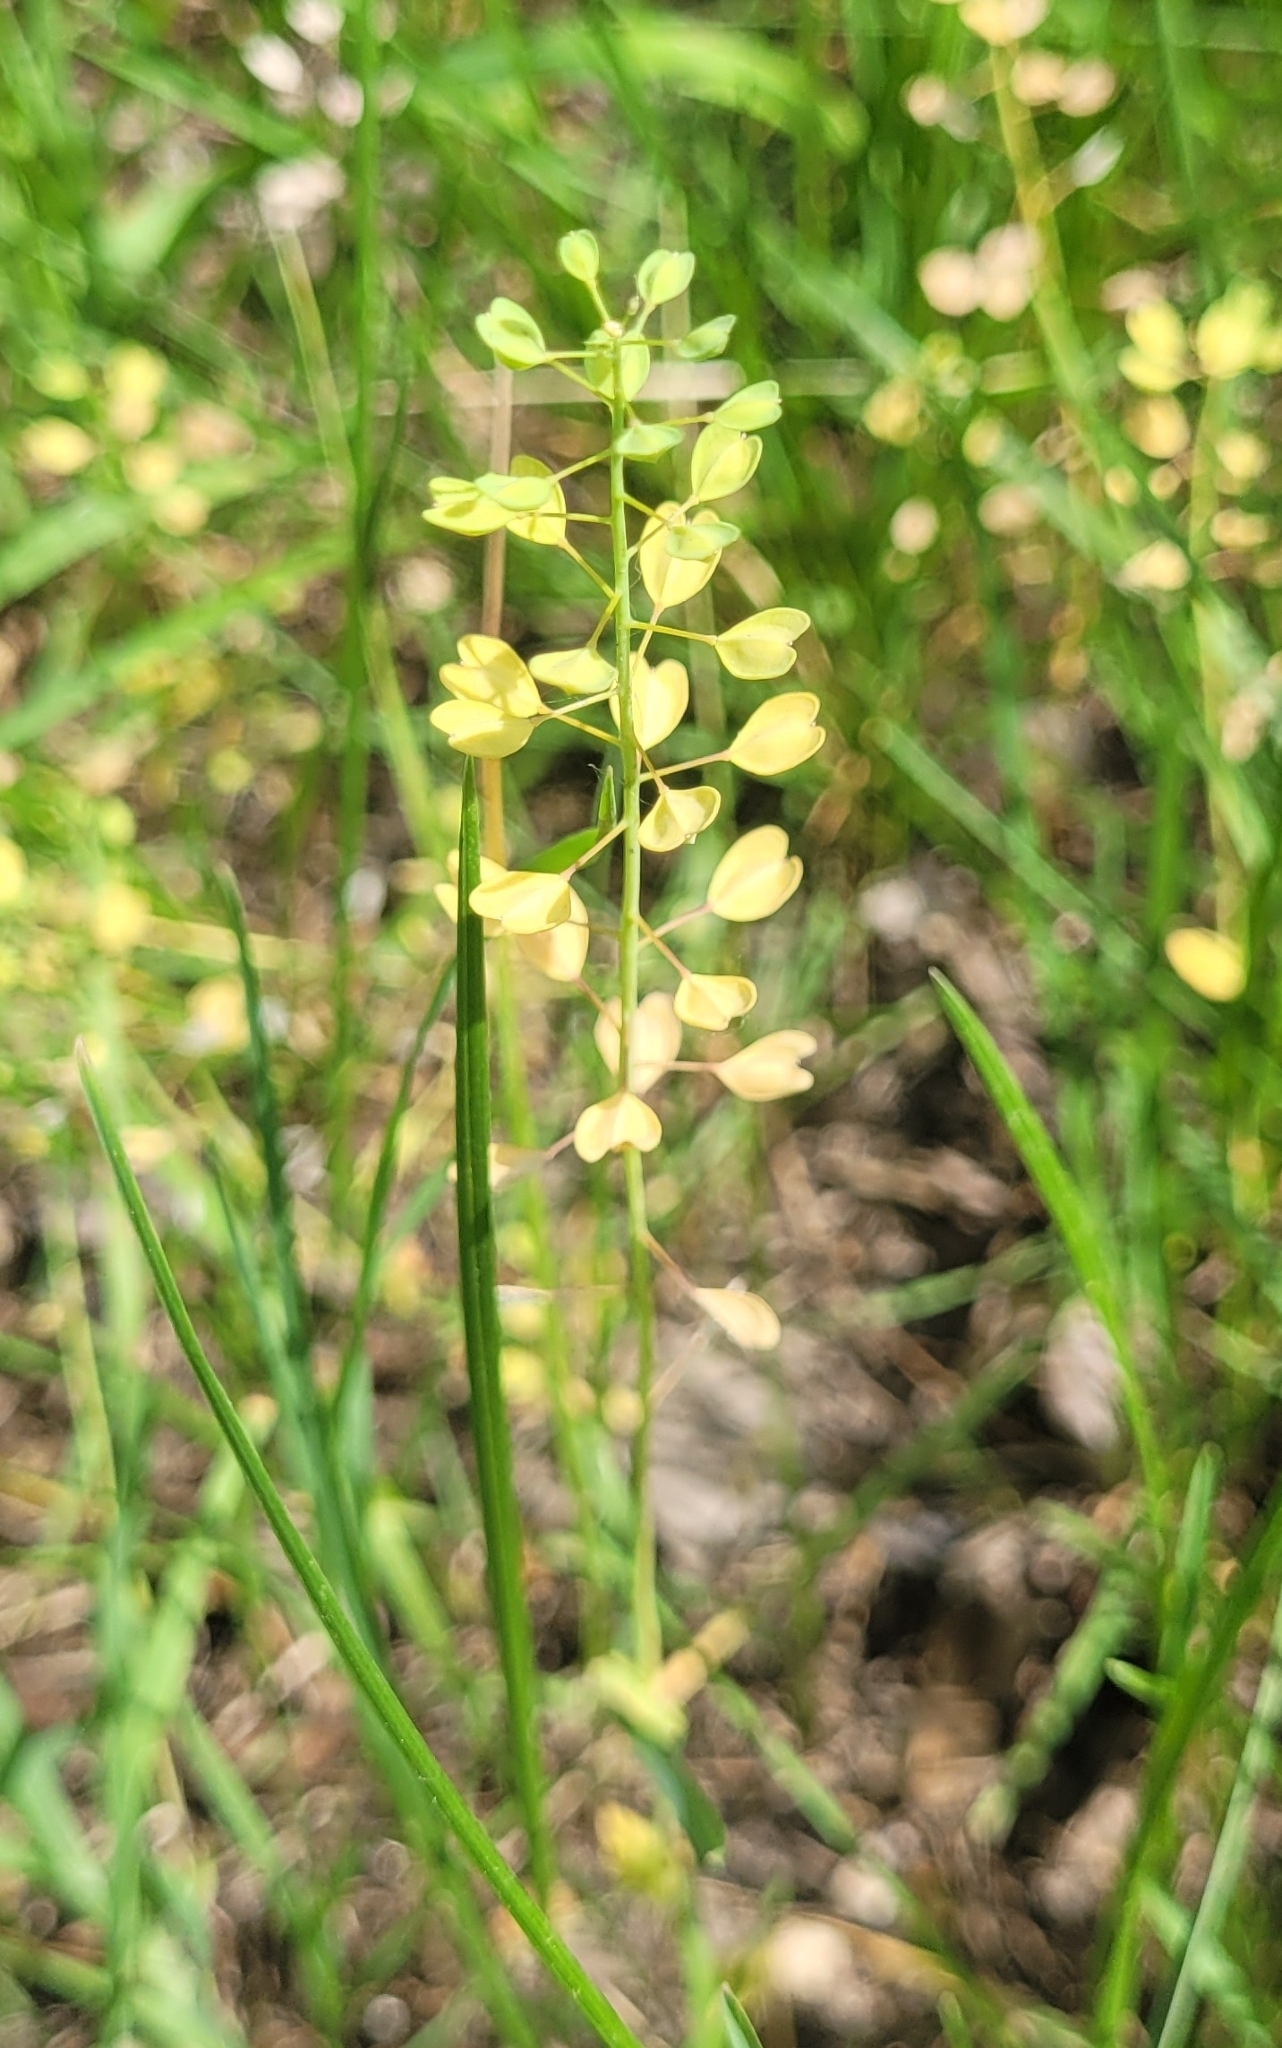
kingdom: Plantae
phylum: Tracheophyta
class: Magnoliopsida
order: Brassicales
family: Brassicaceae
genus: Noccaea
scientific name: Noccaea perfoliata
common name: Perfoliate pennycress
